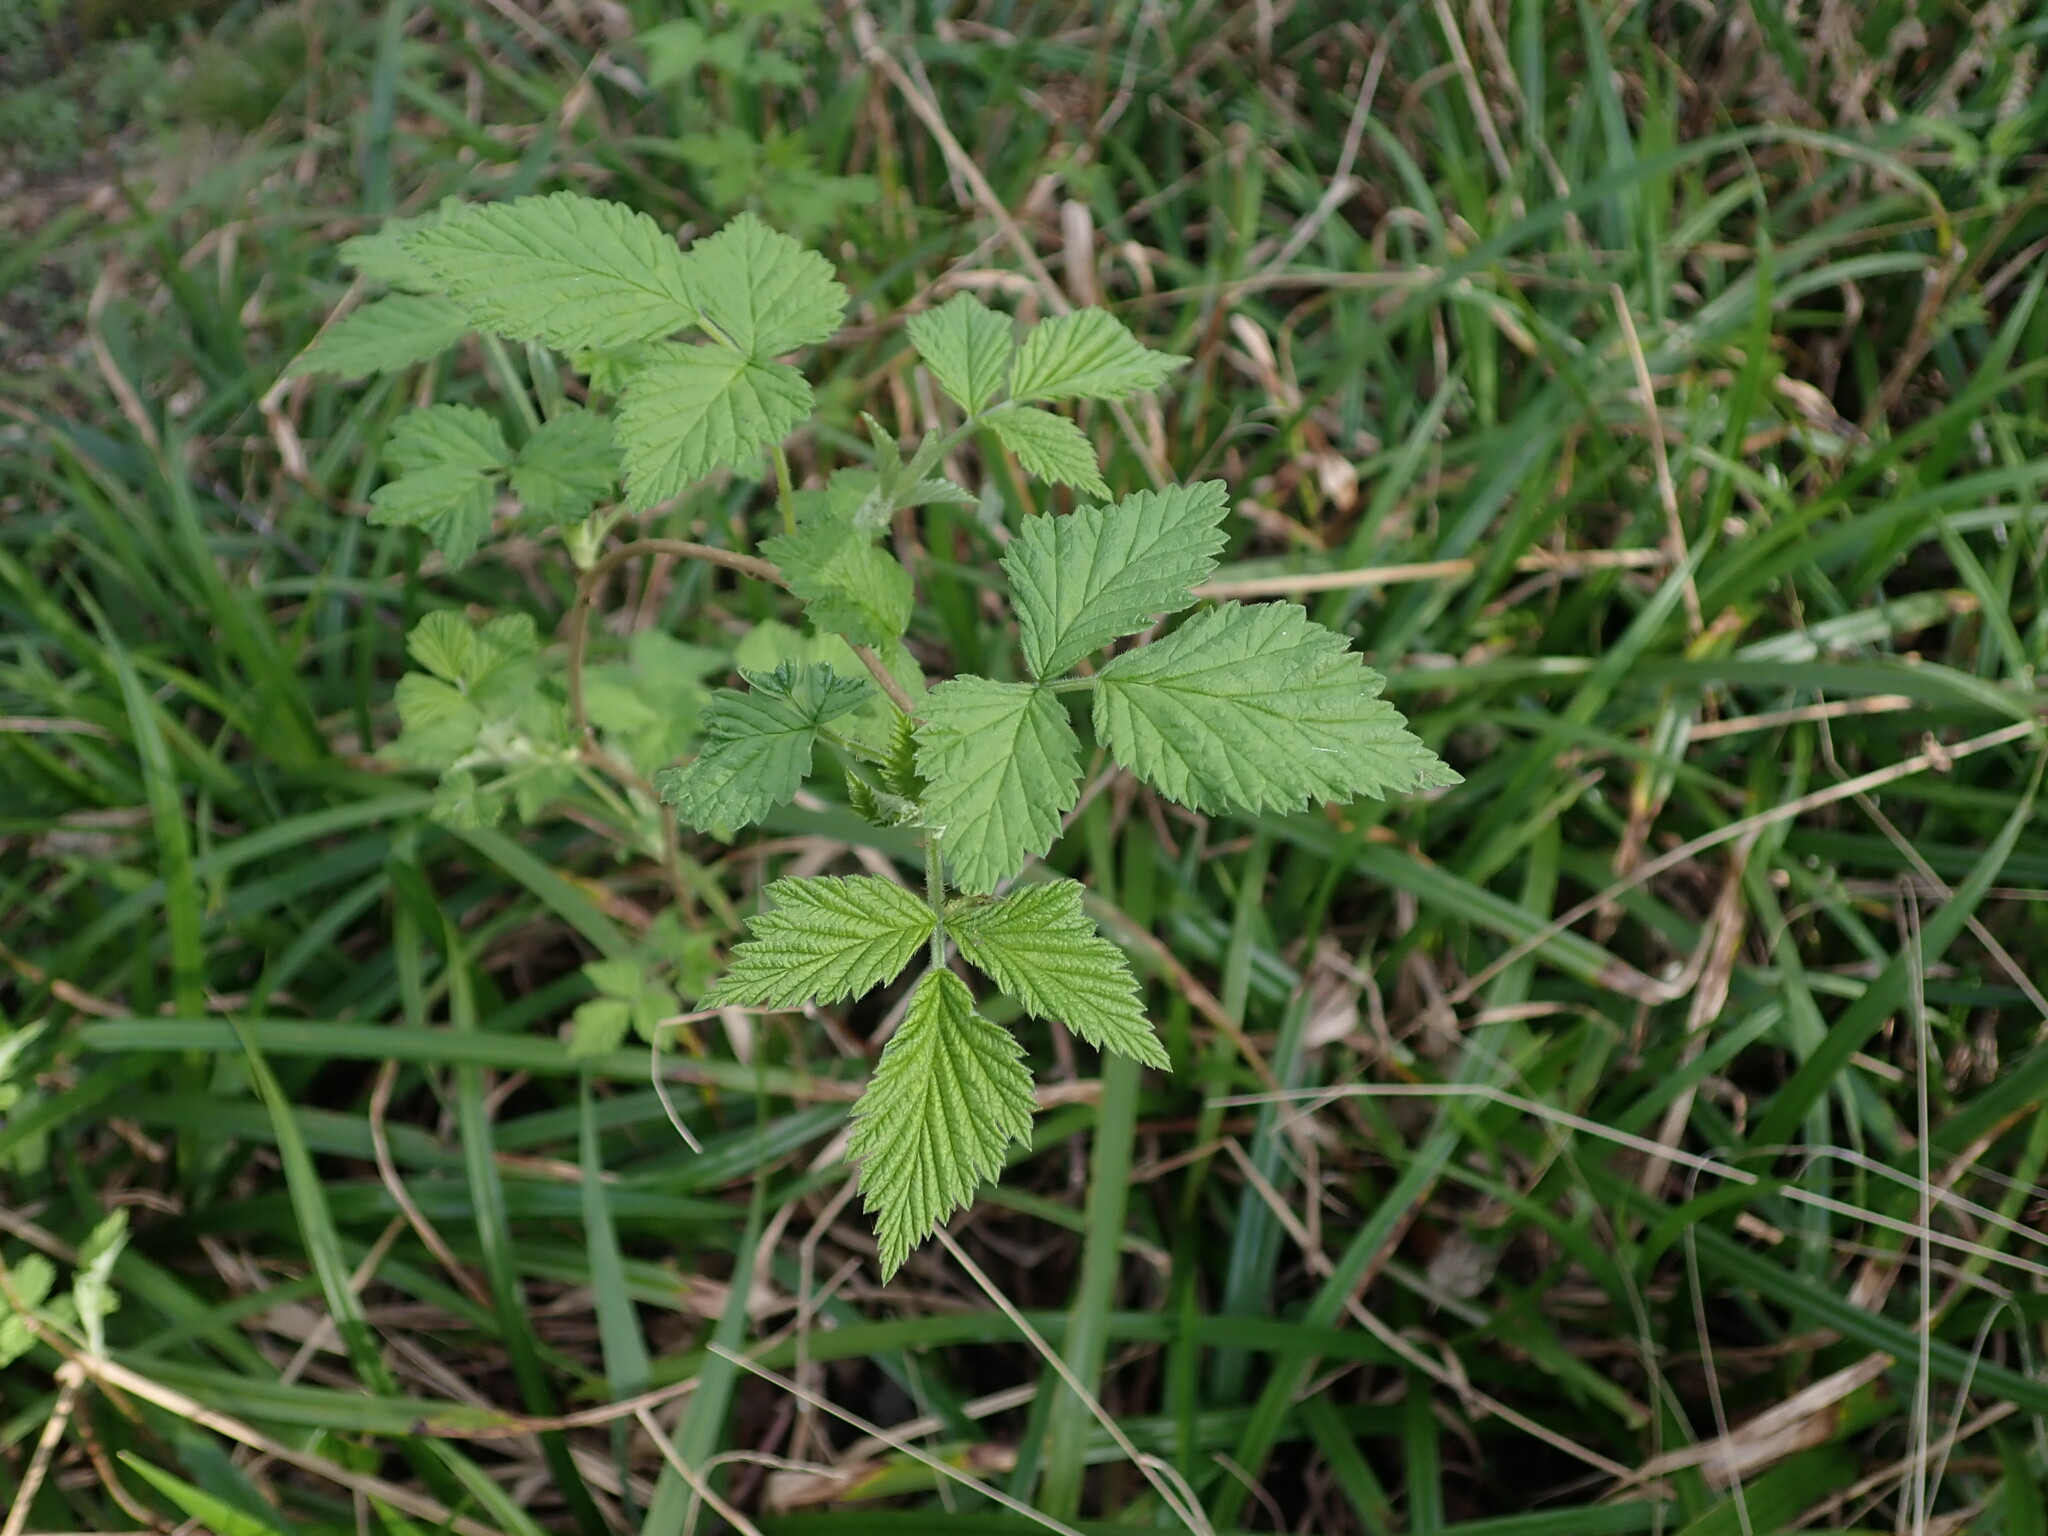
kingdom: Plantae
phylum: Tracheophyta
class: Magnoliopsida
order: Rosales
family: Rosaceae
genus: Rubus
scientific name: Rubus idaeus
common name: Raspberry
